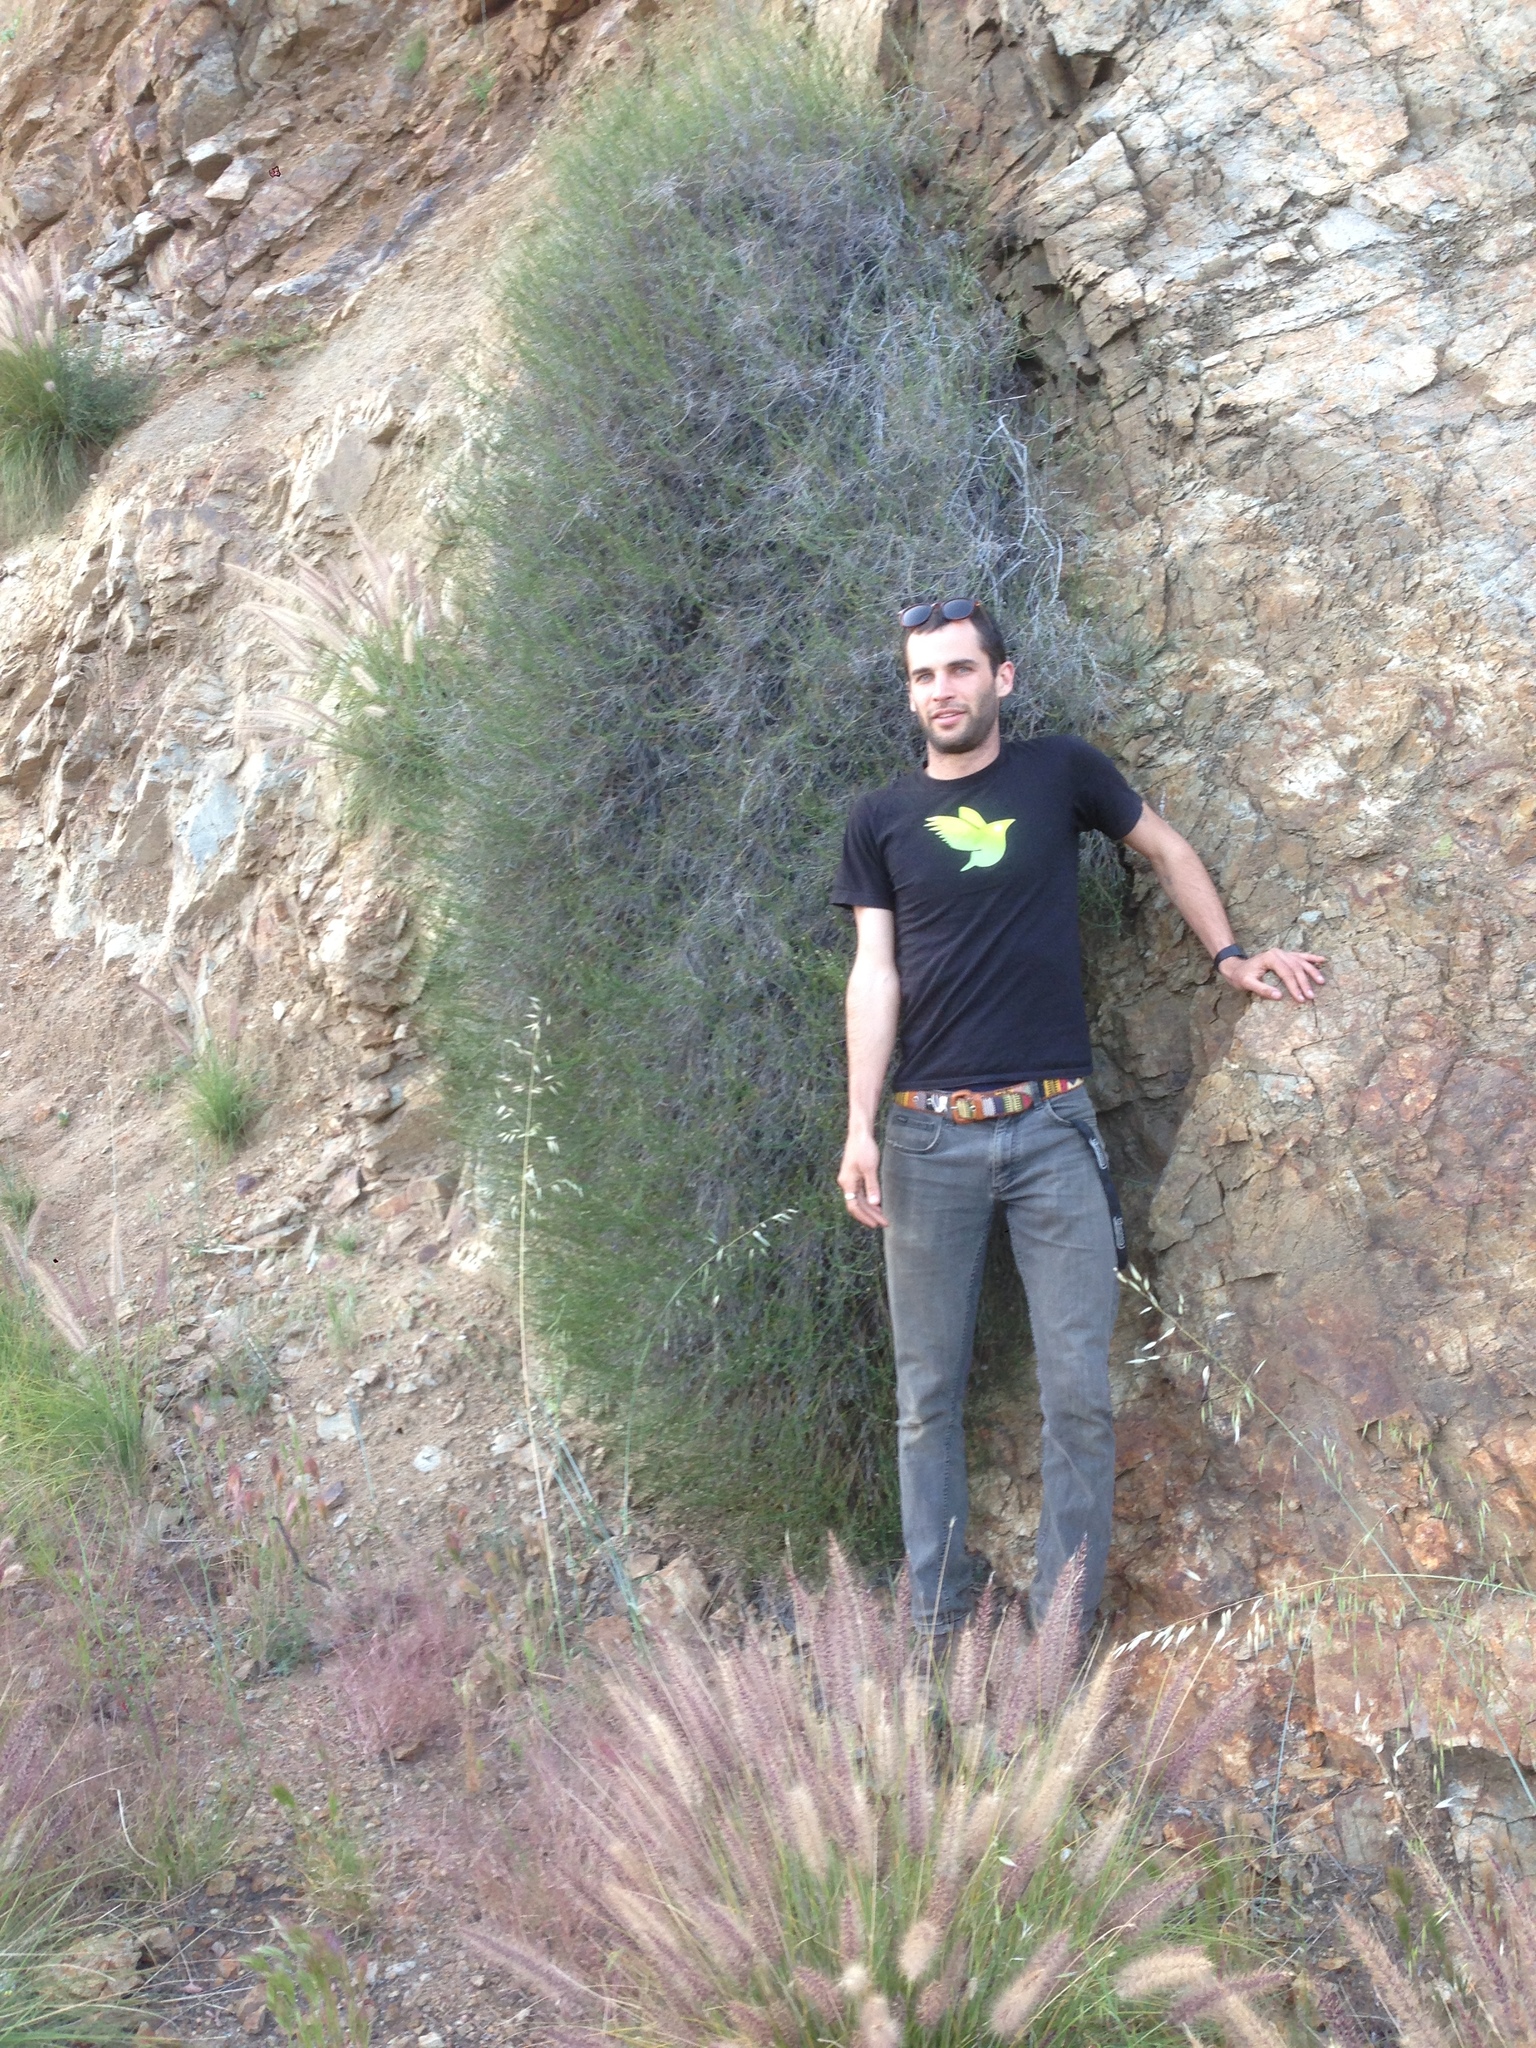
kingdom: Plantae
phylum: Tracheophyta
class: Magnoliopsida
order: Asterales
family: Asteraceae
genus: Bebbia
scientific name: Bebbia juncea
